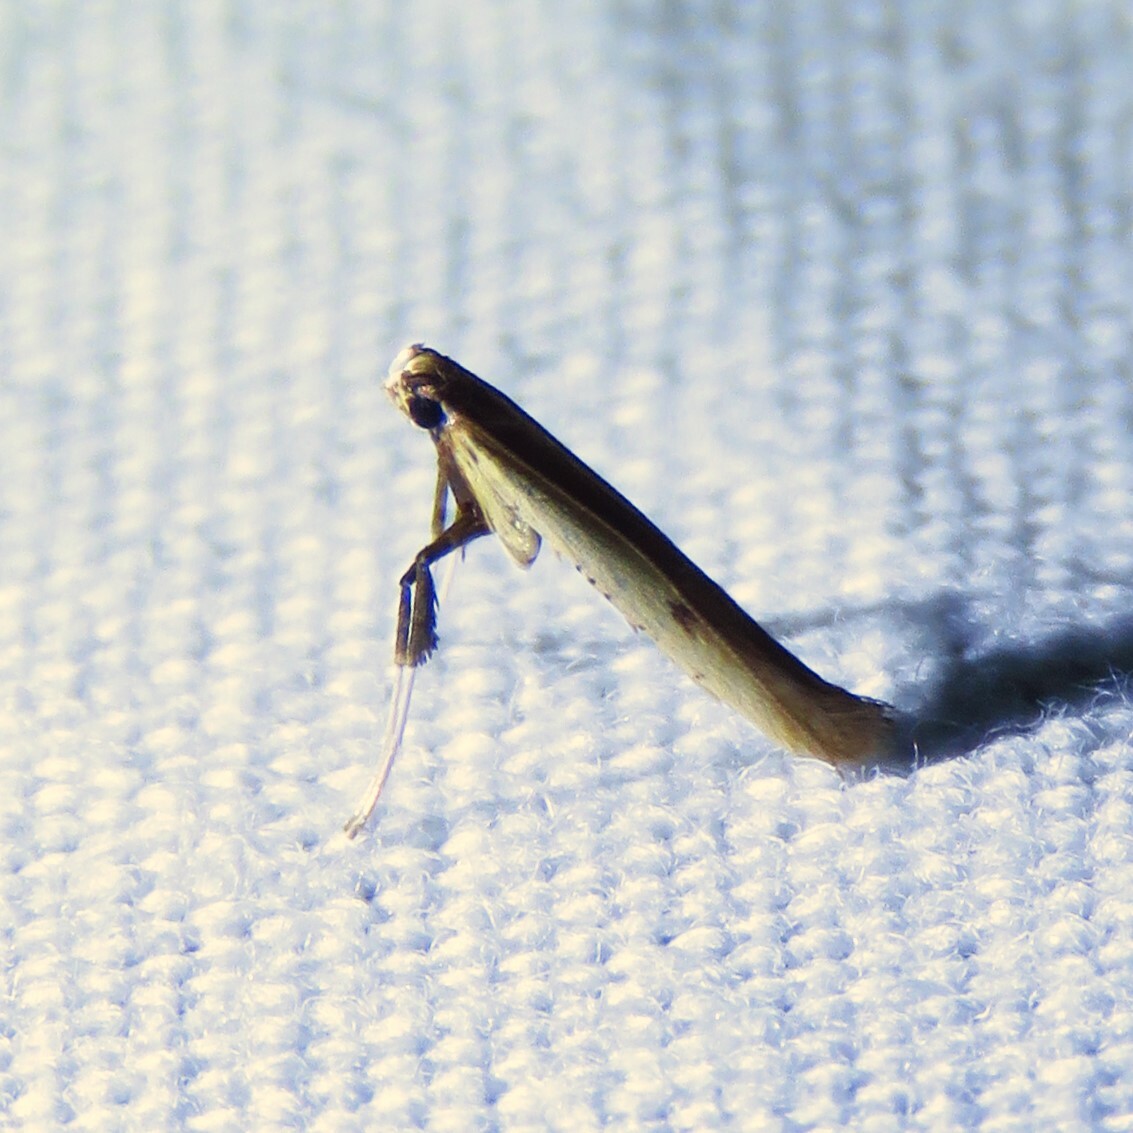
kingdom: Animalia
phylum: Arthropoda
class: Insecta
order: Lepidoptera
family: Gracillariidae
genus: Caloptilia
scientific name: Caloptilia violacella
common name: Tick-trefoil caloptilia moth
